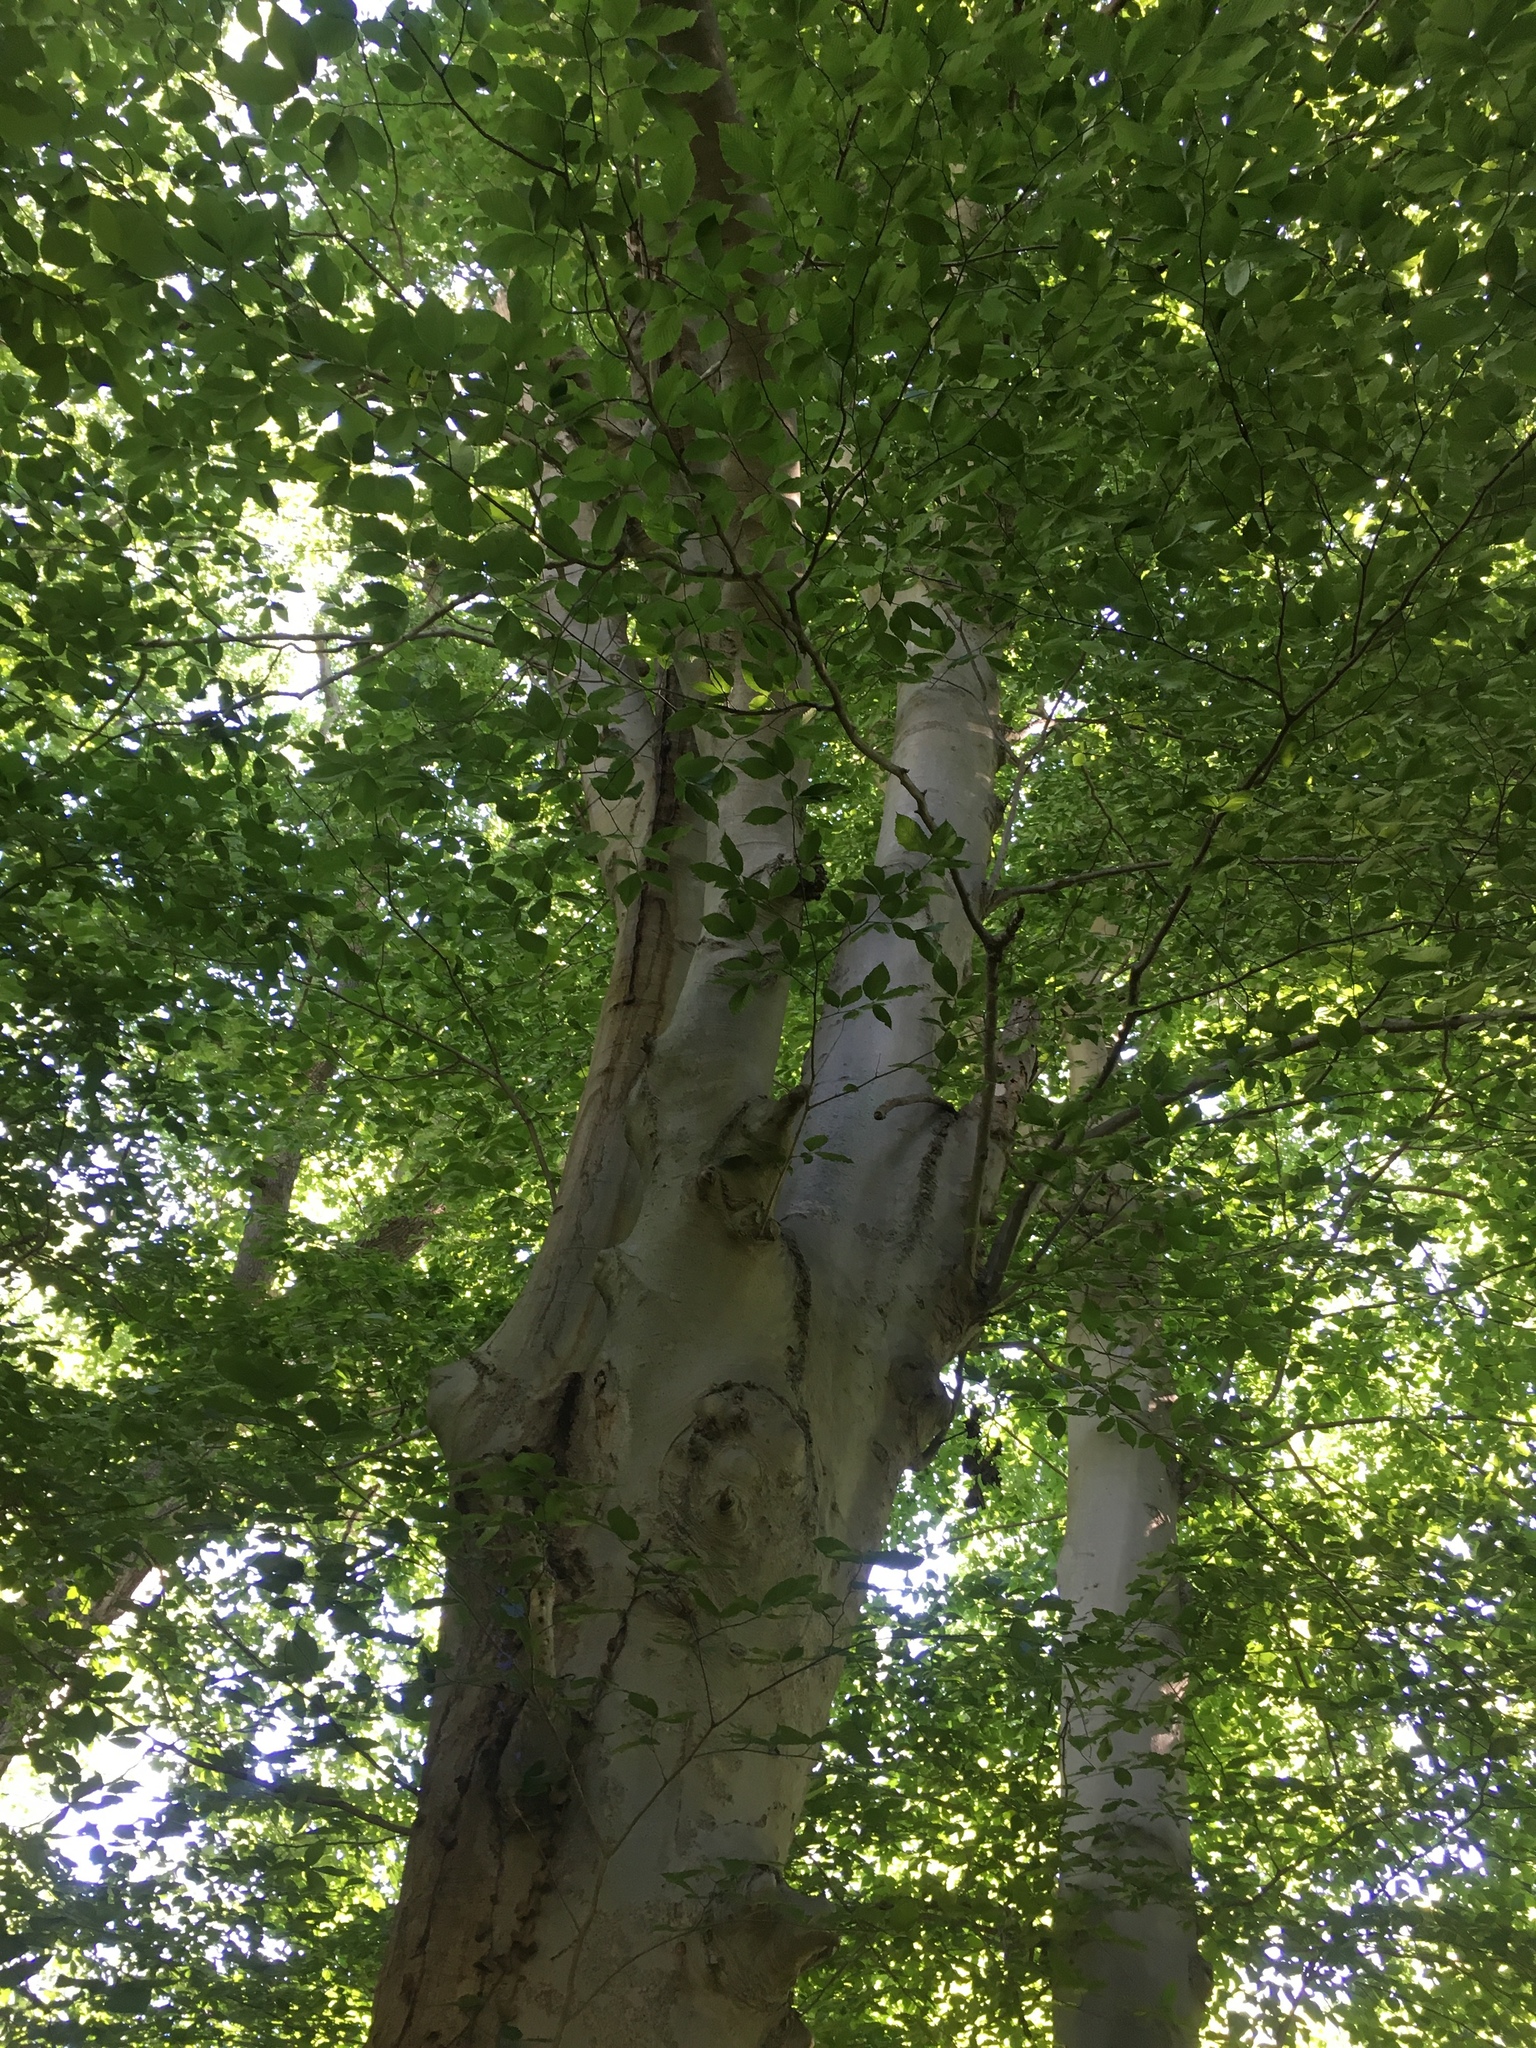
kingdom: Plantae
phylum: Tracheophyta
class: Magnoliopsida
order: Fagales
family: Fagaceae
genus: Fagus
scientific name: Fagus grandifolia
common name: American beech
